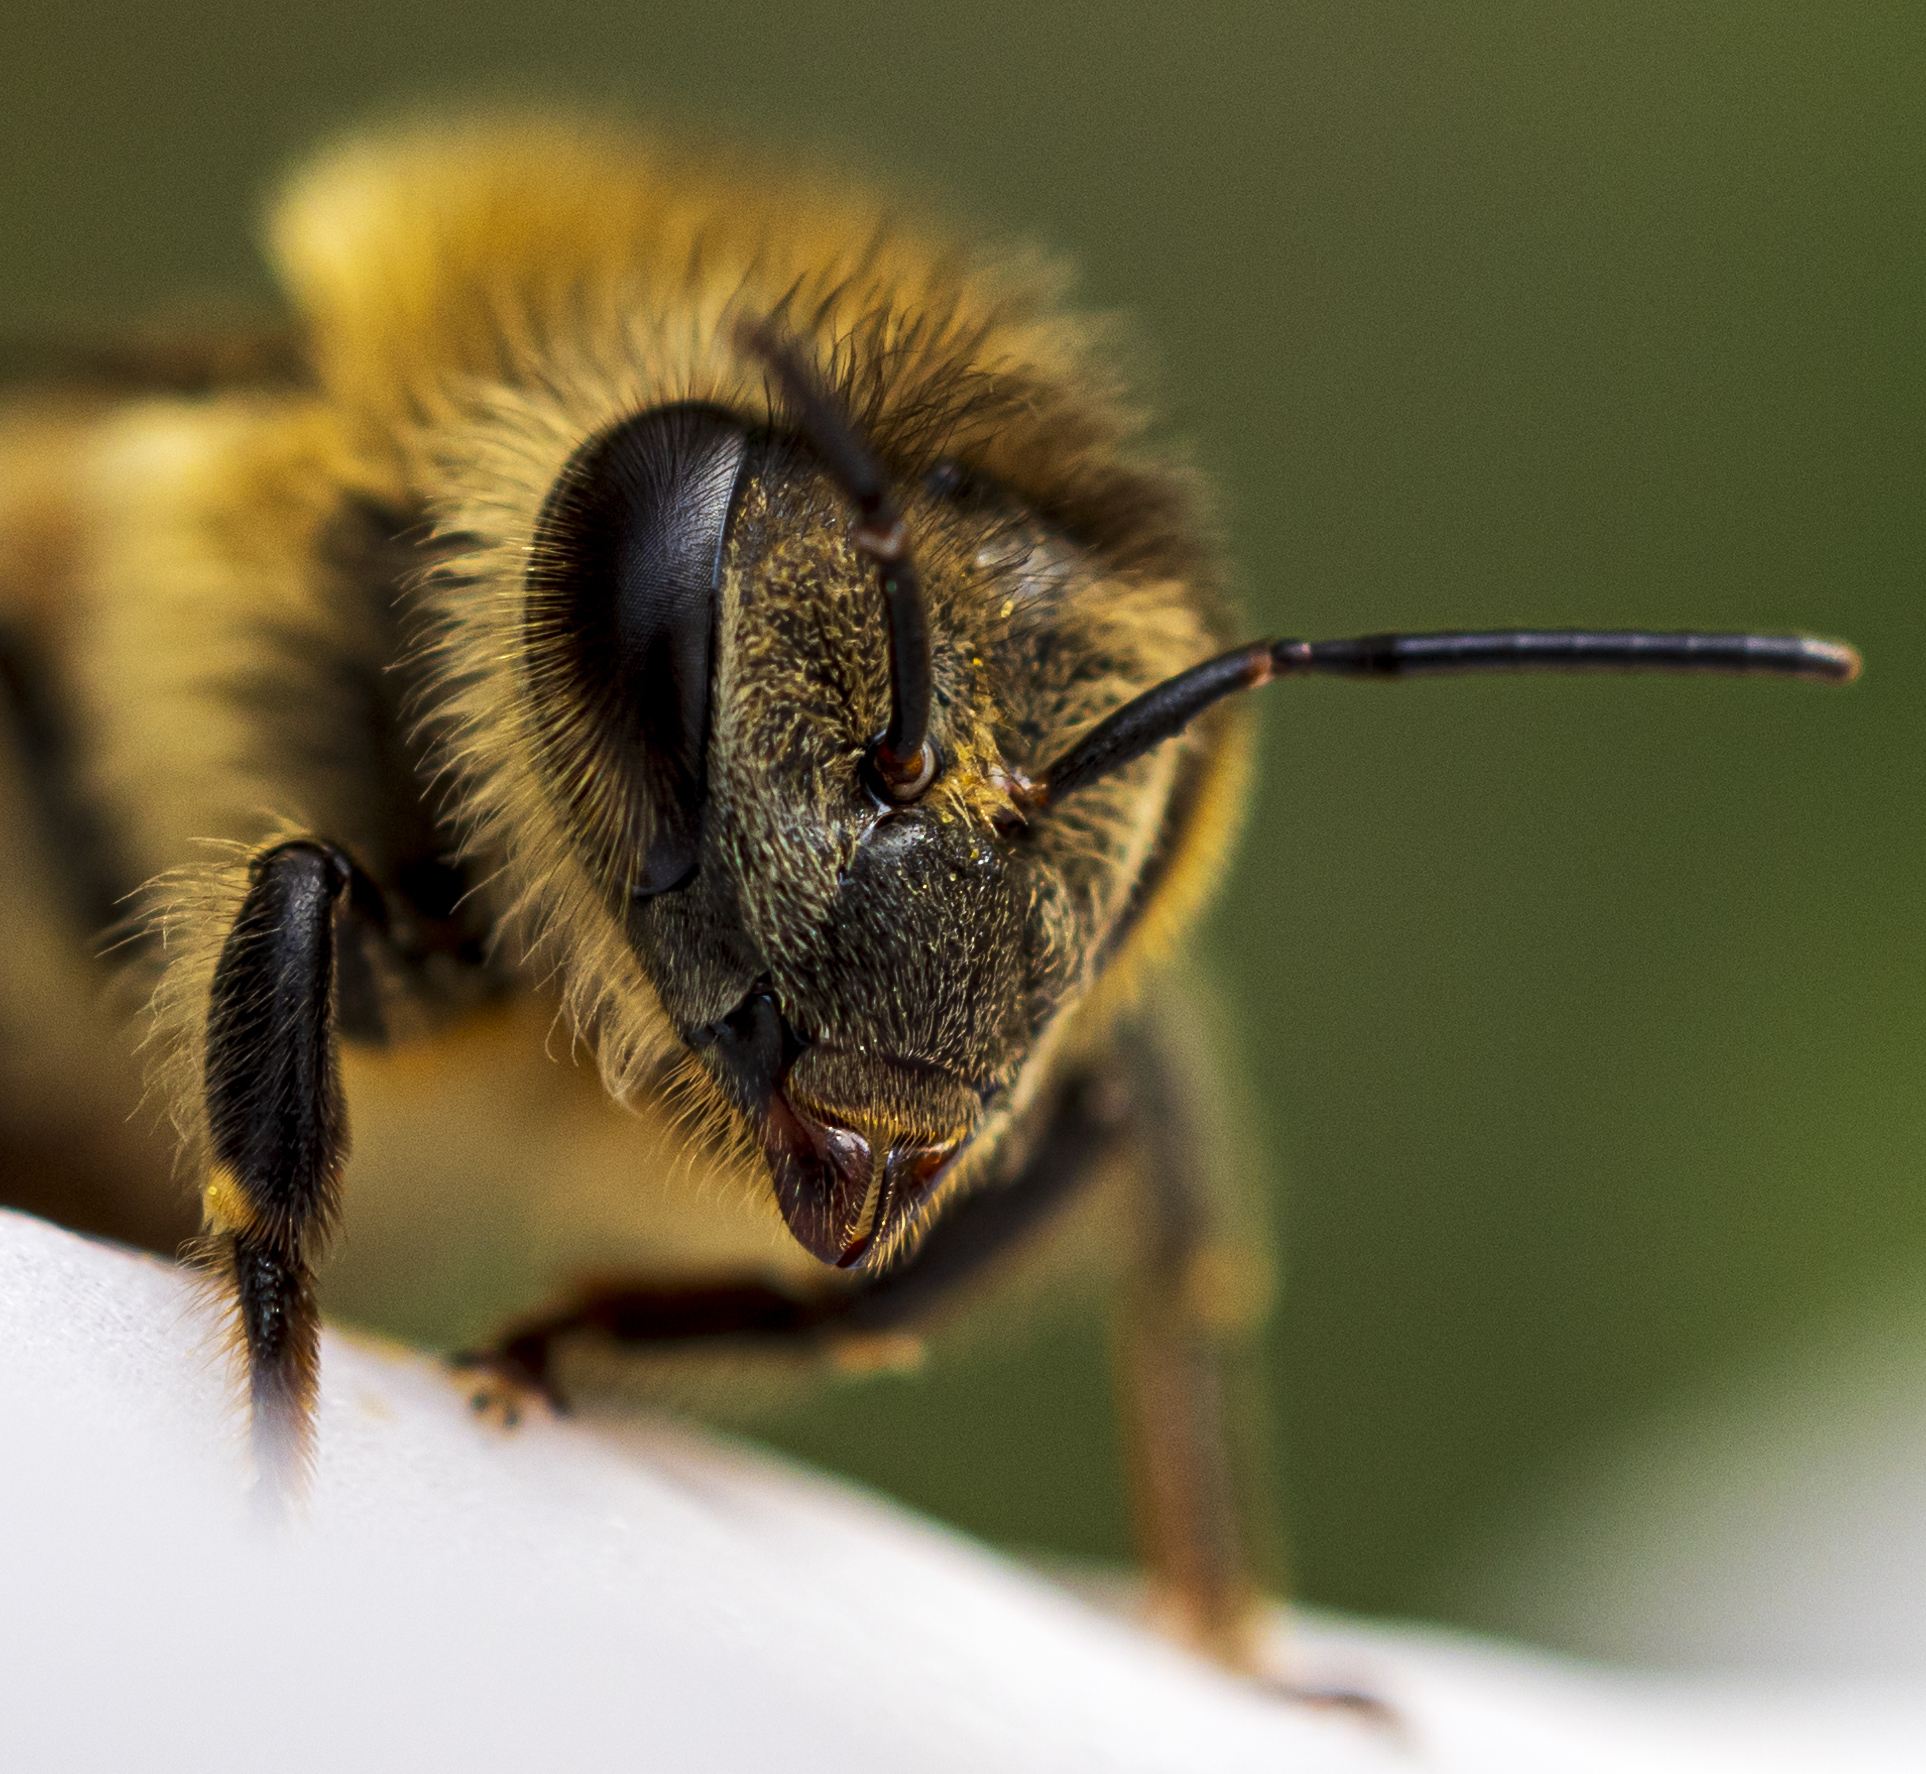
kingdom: Animalia
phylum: Arthropoda
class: Insecta
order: Hymenoptera
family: Apidae
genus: Apis
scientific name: Apis mellifera
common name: Honey bee
